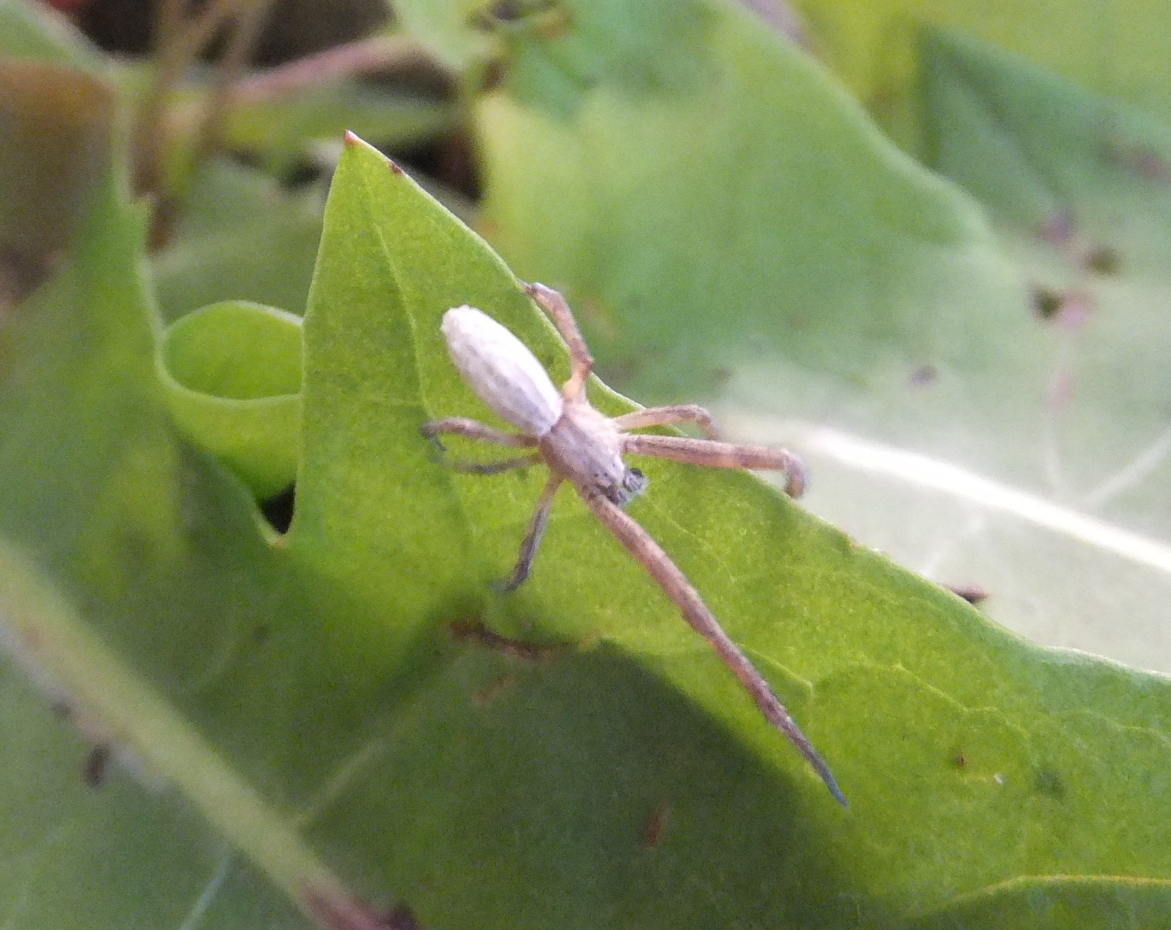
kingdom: Animalia
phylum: Arthropoda
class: Arachnida
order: Araneae
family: Uloboridae
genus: Uloborus
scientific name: Uloborus walckenaerius
